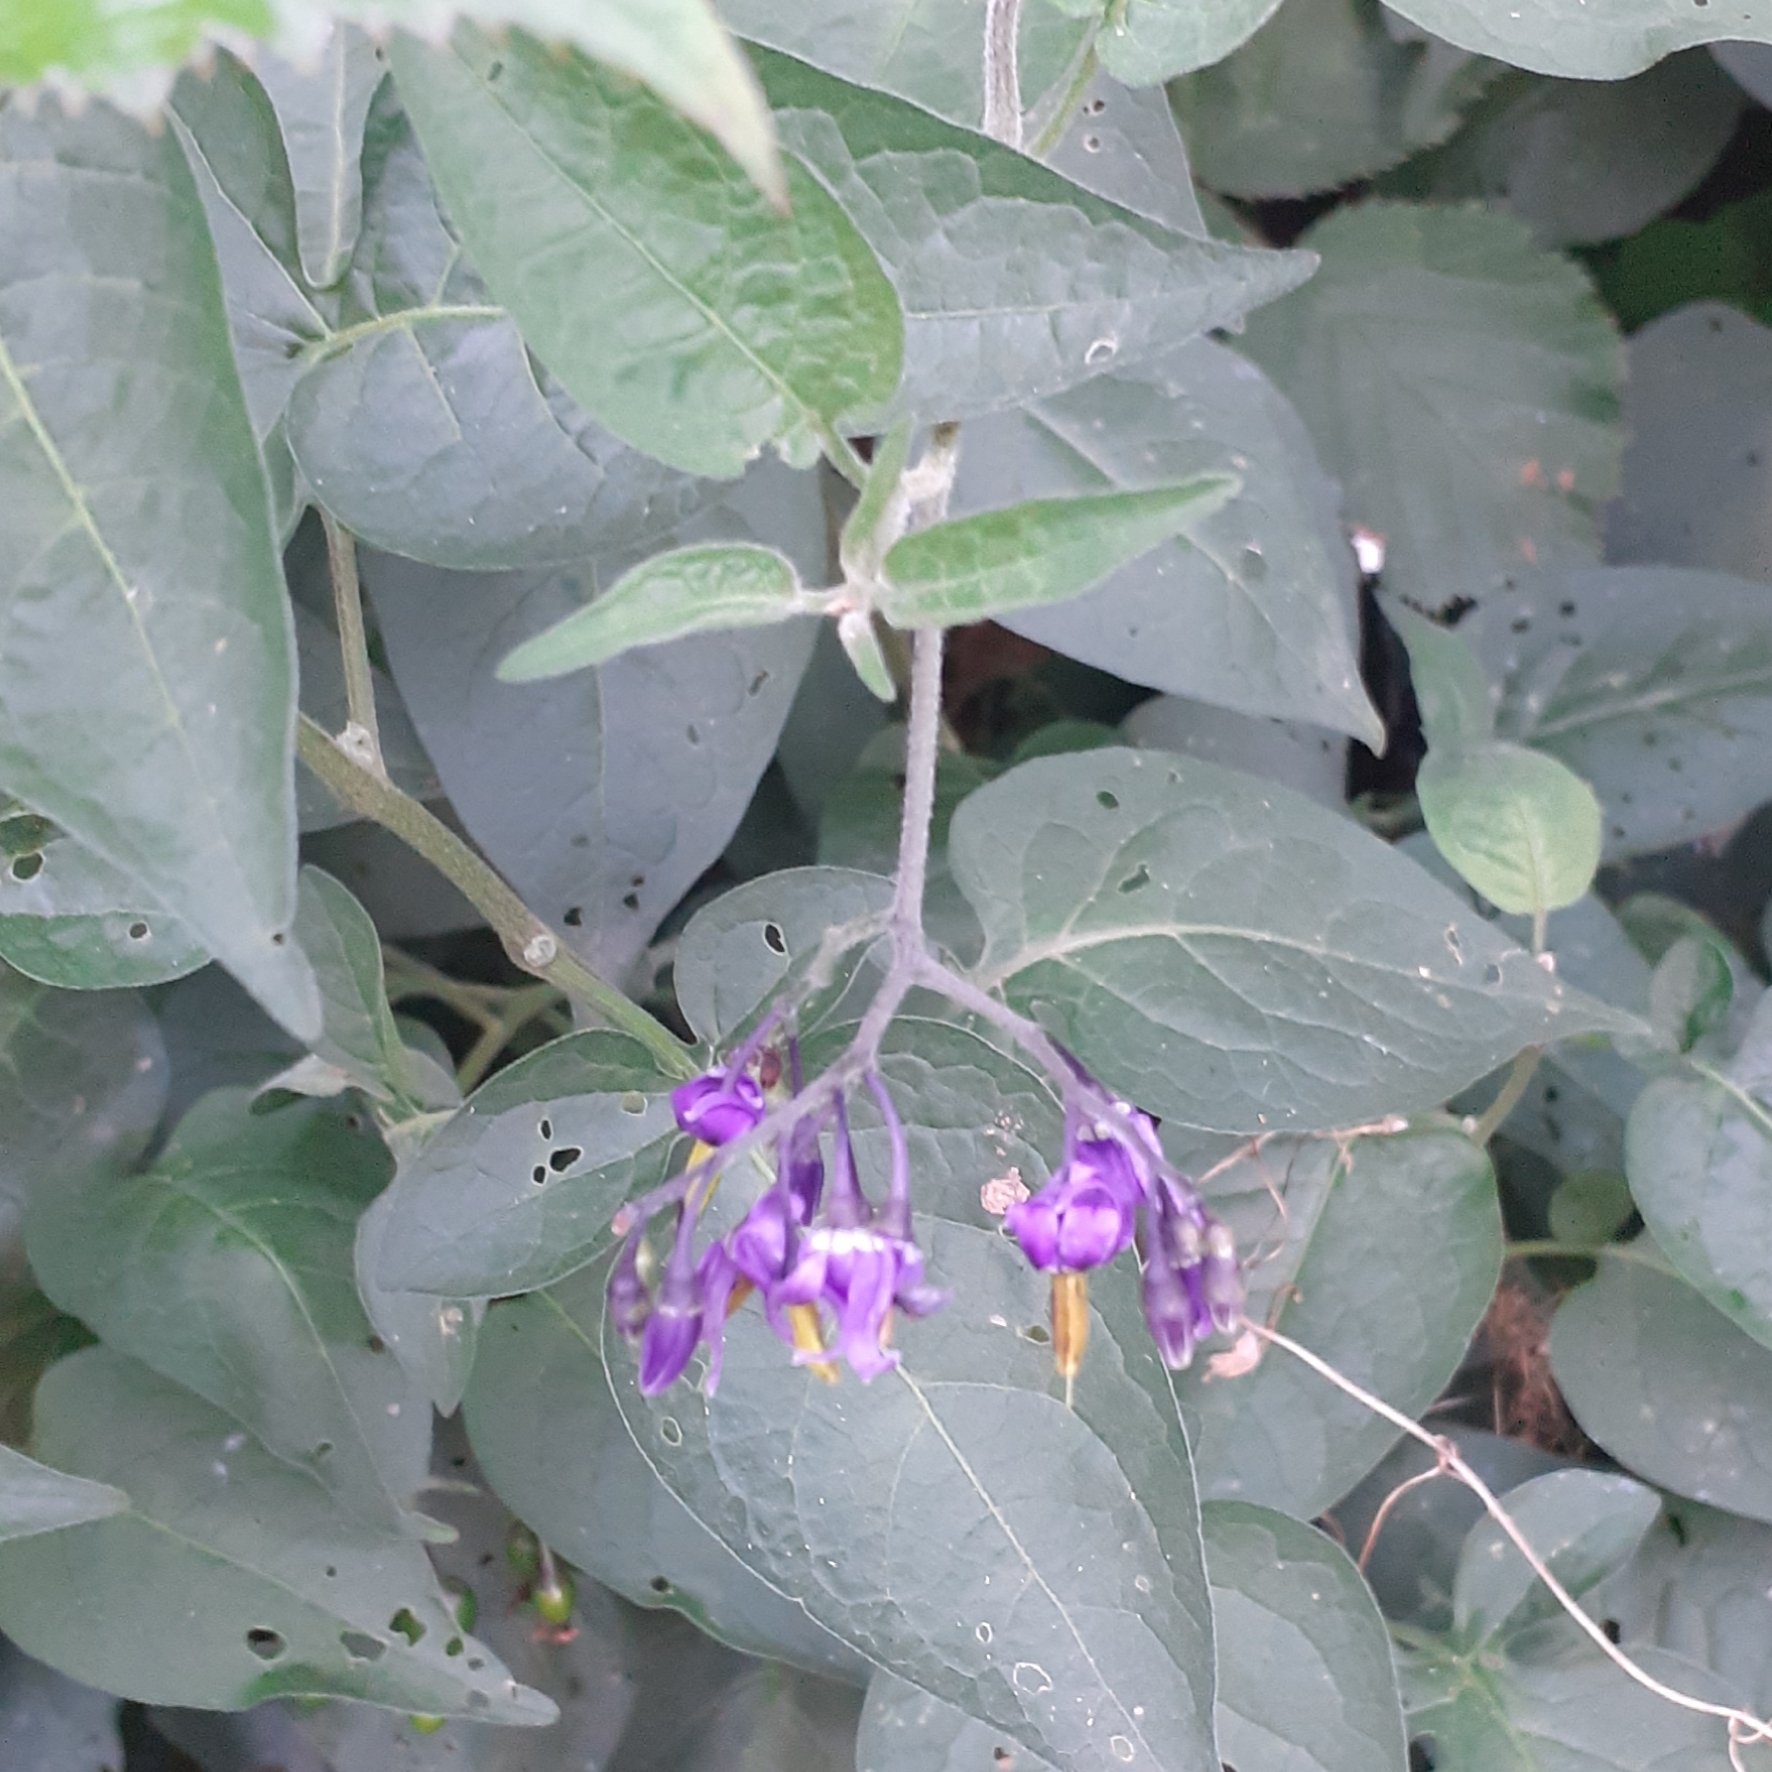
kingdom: Plantae
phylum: Tracheophyta
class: Magnoliopsida
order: Solanales
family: Solanaceae
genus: Solanum
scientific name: Solanum dulcamara
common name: Climbing nightshade
